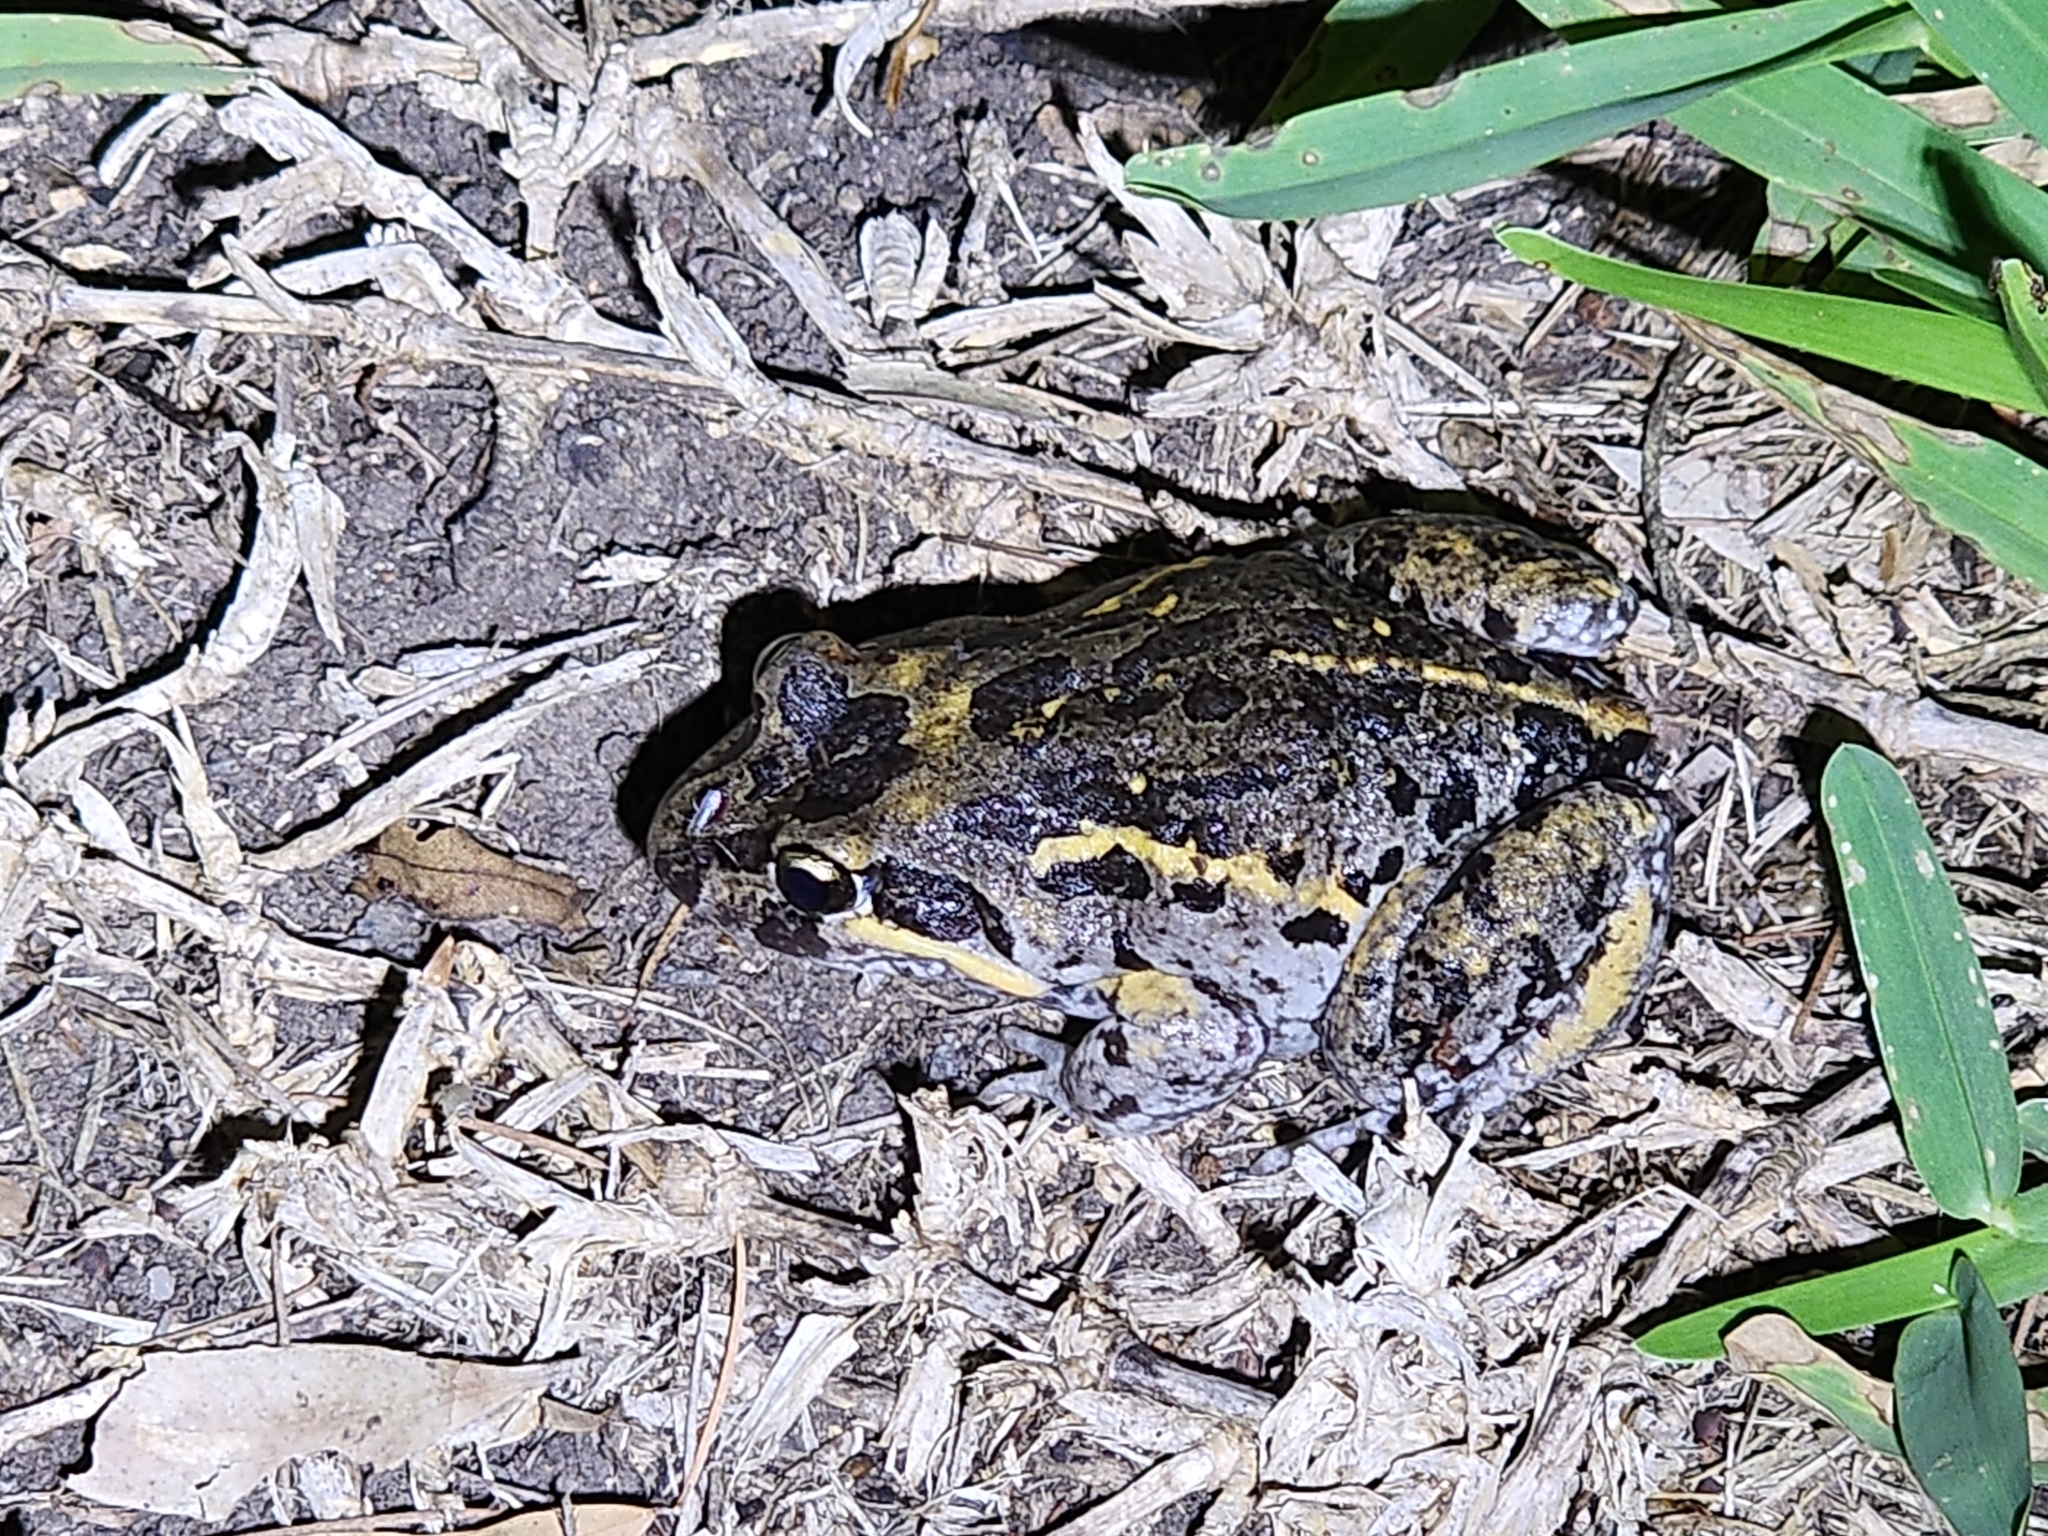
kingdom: Animalia
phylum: Chordata
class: Amphibia
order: Anura
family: Limnodynastidae
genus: Limnodynastes
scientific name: Limnodynastes salmini
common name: Salmon-striped frog
